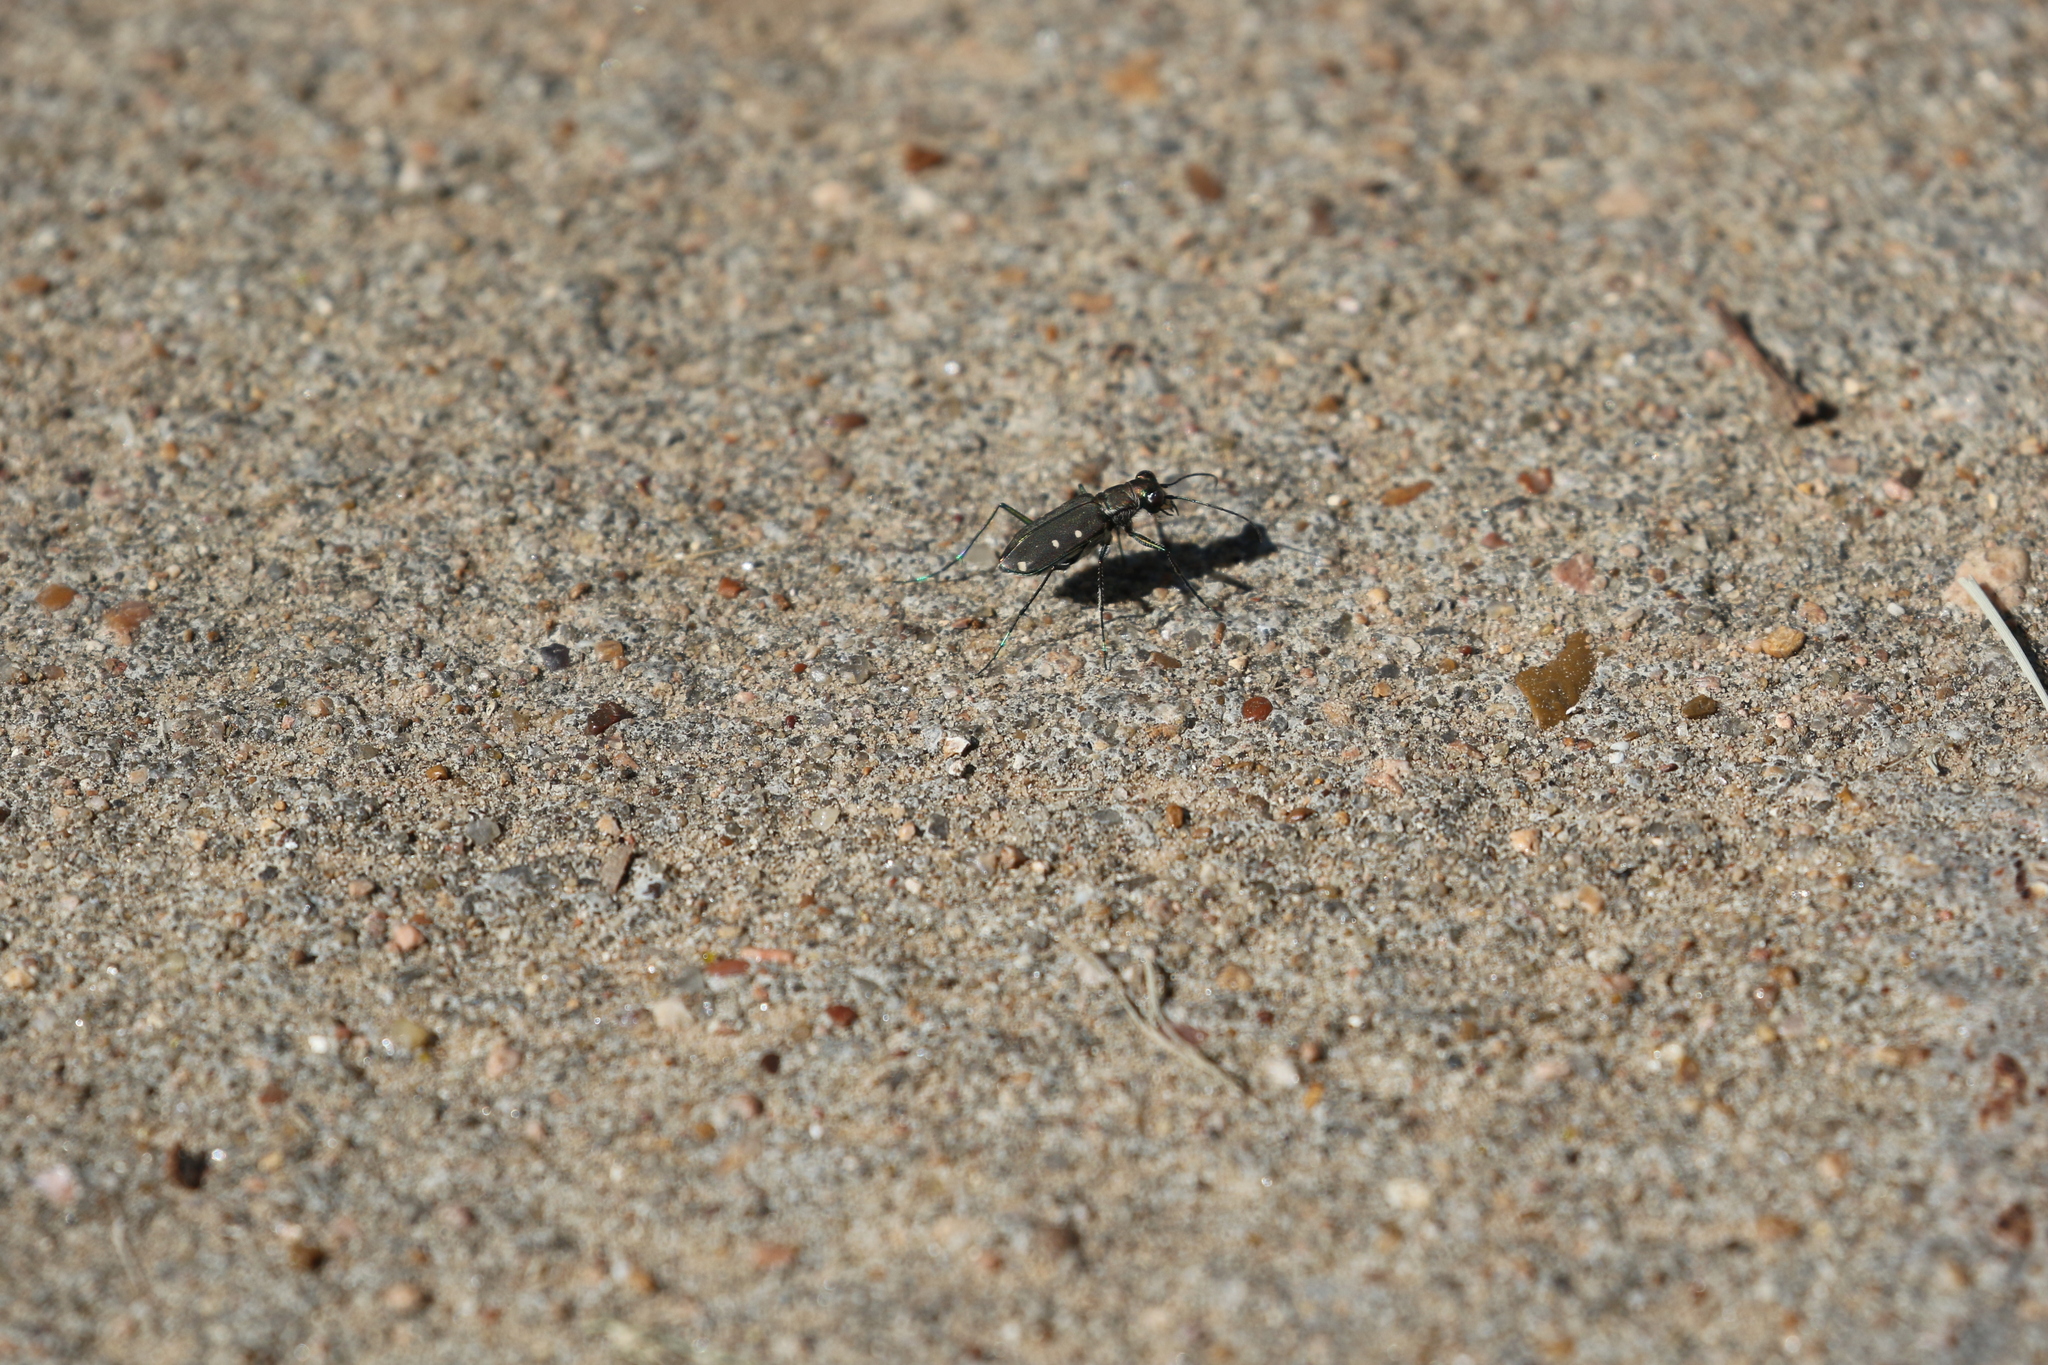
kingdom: Animalia
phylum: Arthropoda
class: Insecta
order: Coleoptera
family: Carabidae
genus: Cicindela
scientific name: Cicindela ocellata
